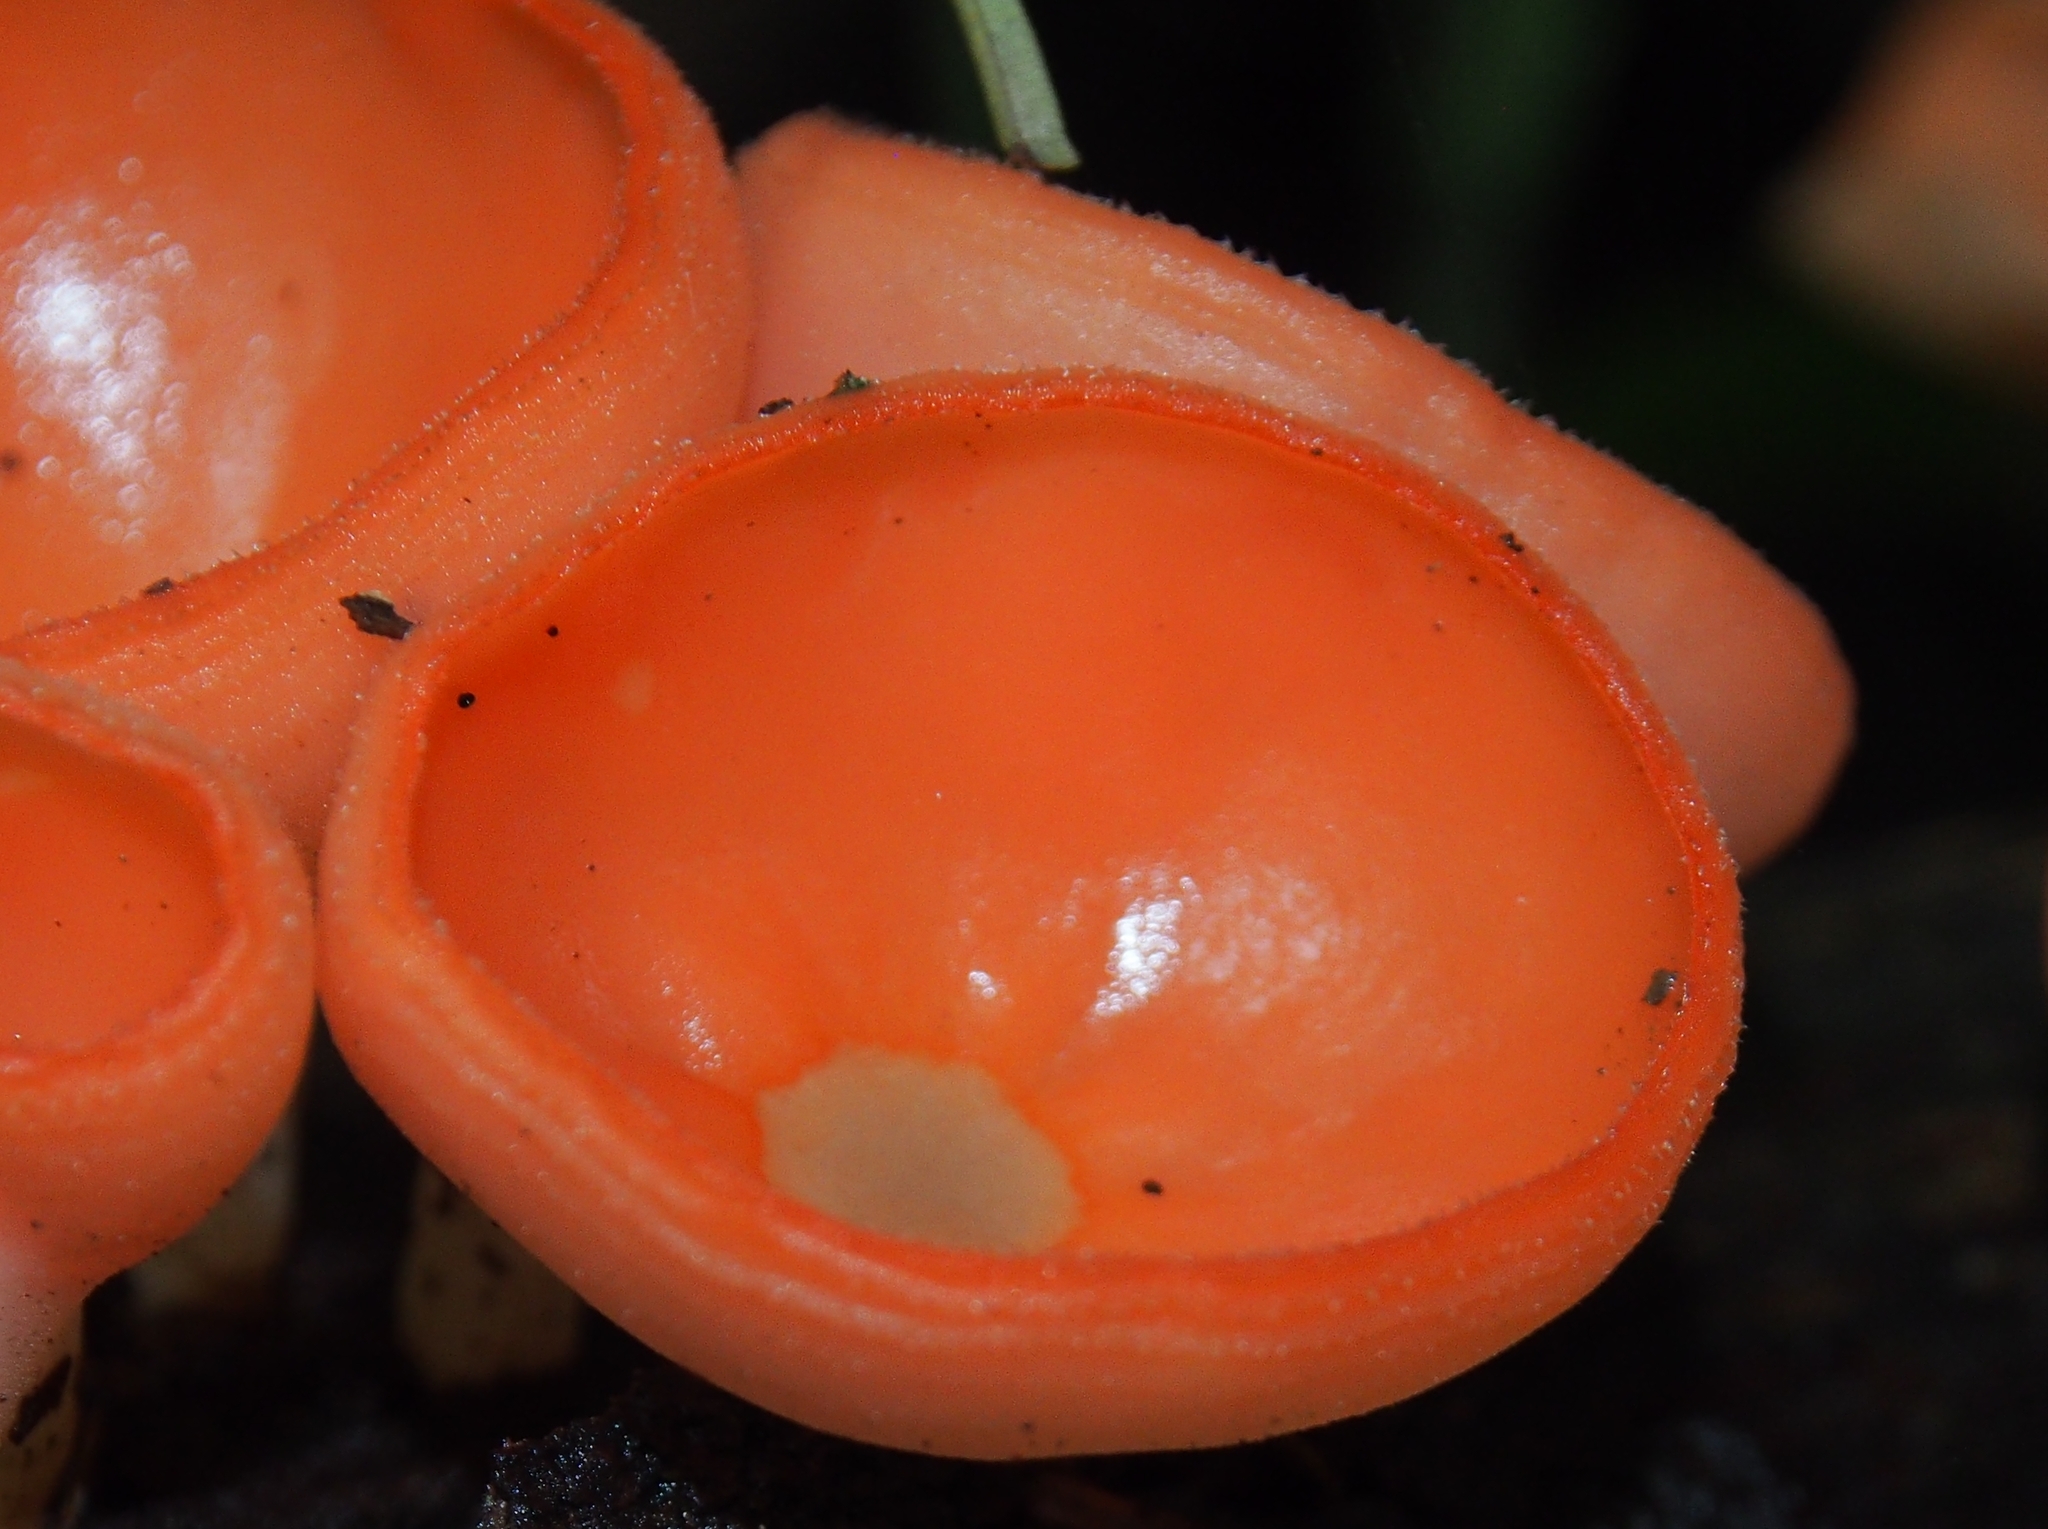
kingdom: Fungi
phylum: Ascomycota
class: Pezizomycetes
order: Pezizales
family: Sarcoscyphaceae
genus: Cookeina
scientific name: Cookeina speciosa
